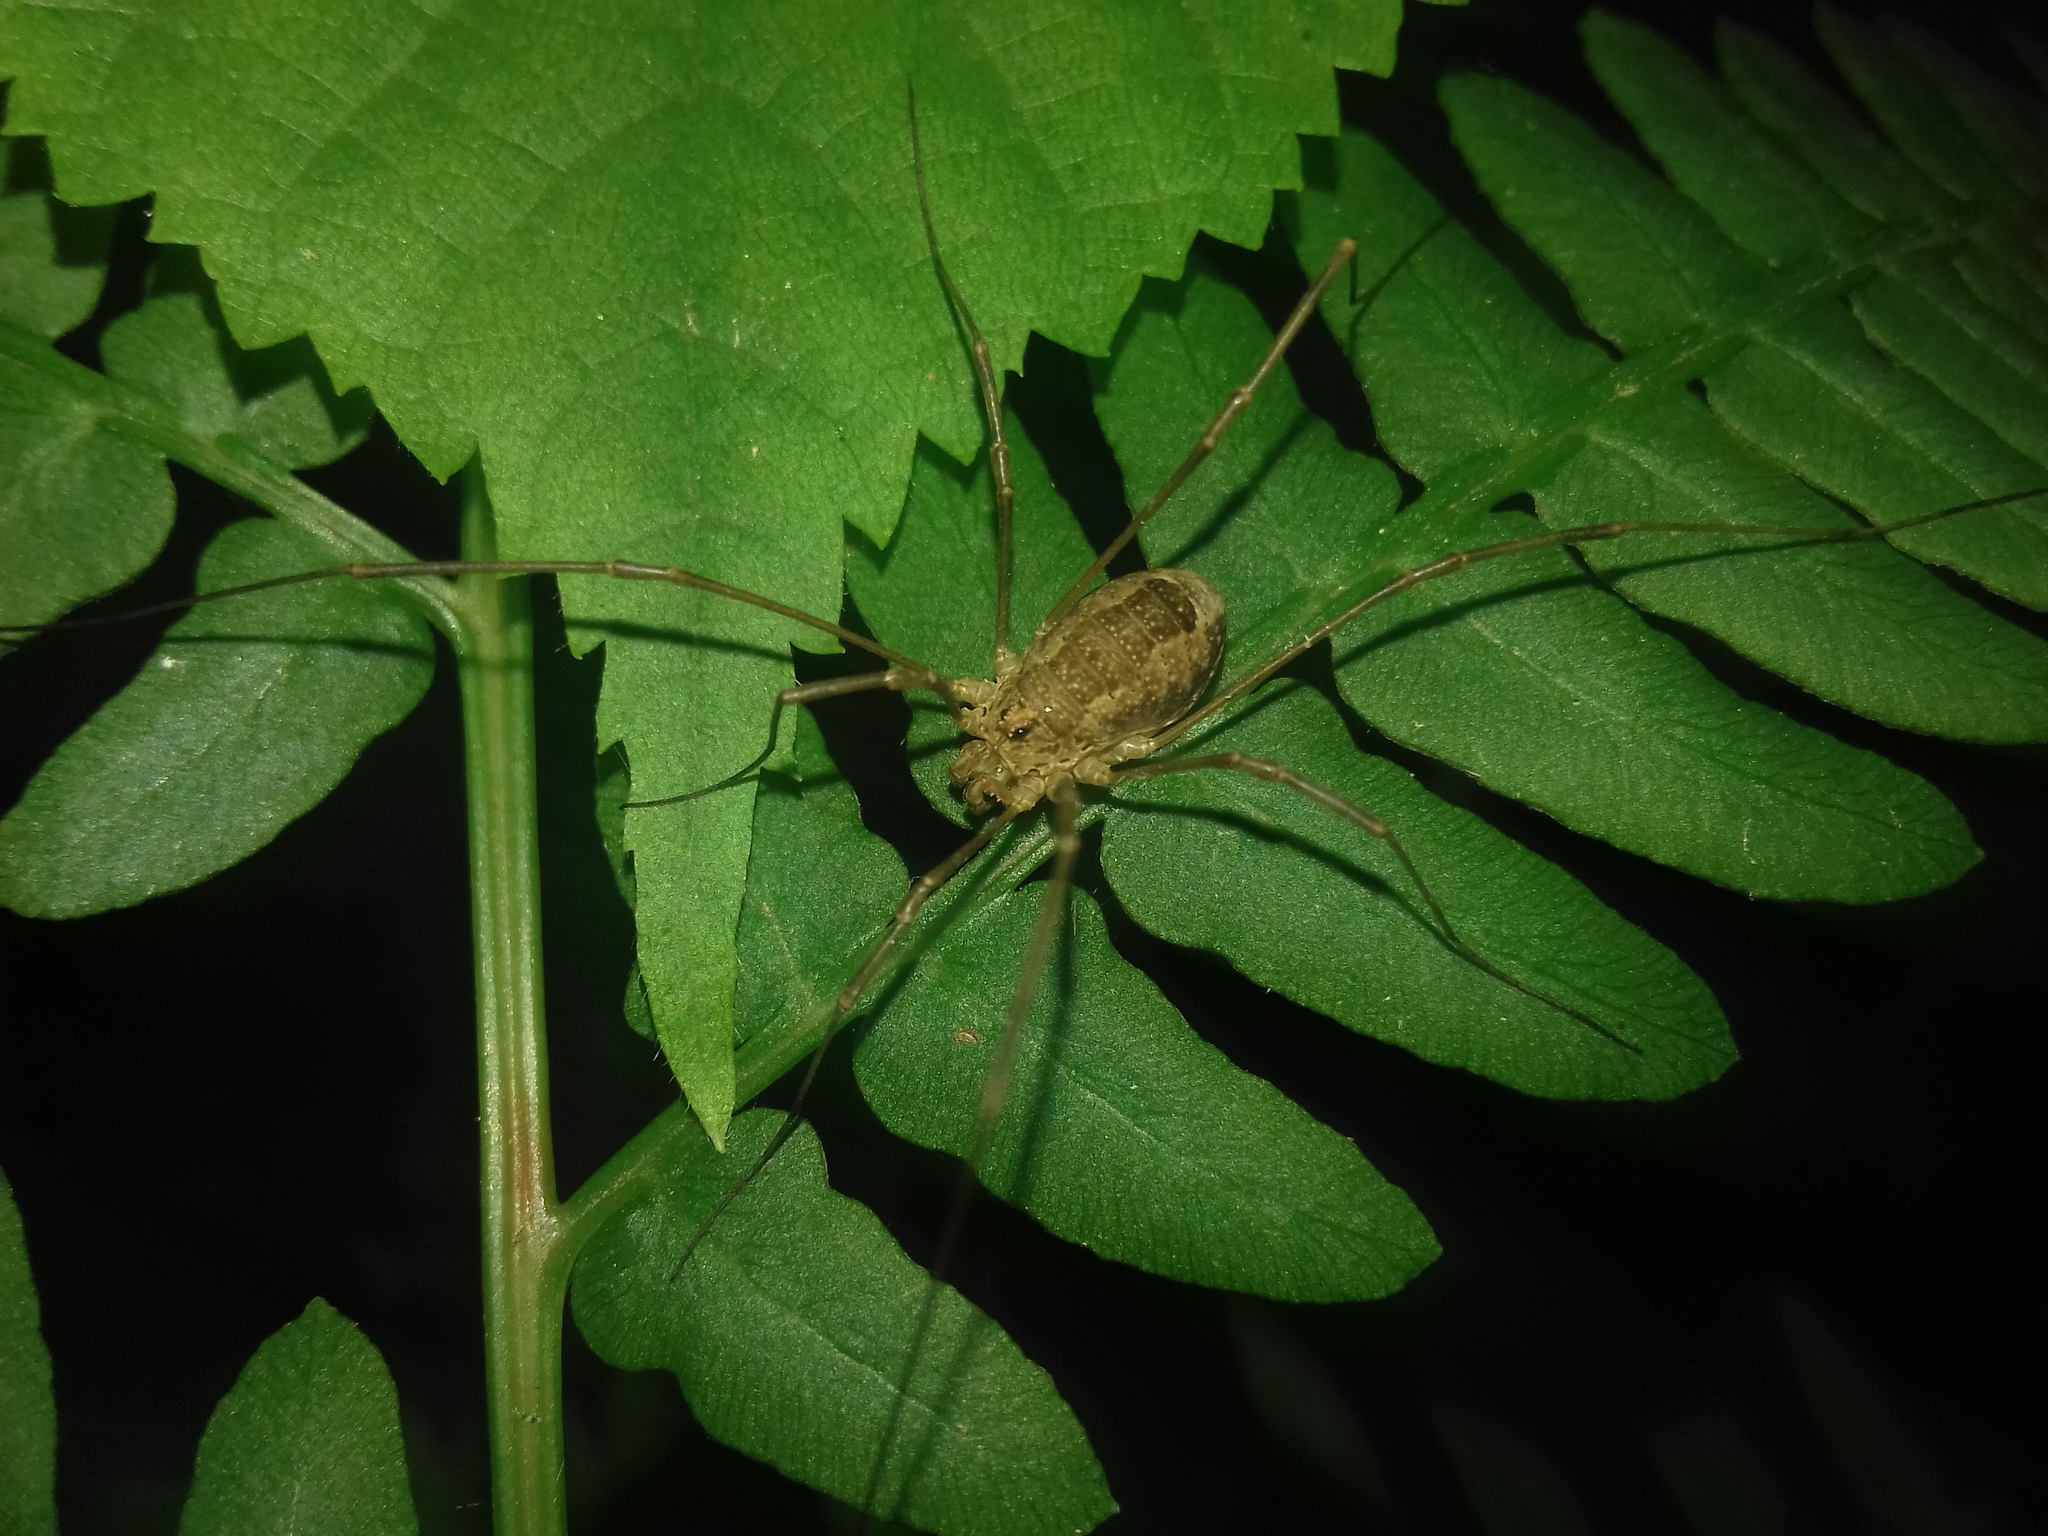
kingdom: Animalia
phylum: Arthropoda
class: Arachnida
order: Opiliones
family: Phalangiidae
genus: Rilaena
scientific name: Rilaena triangularis
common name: Spring harvestman
